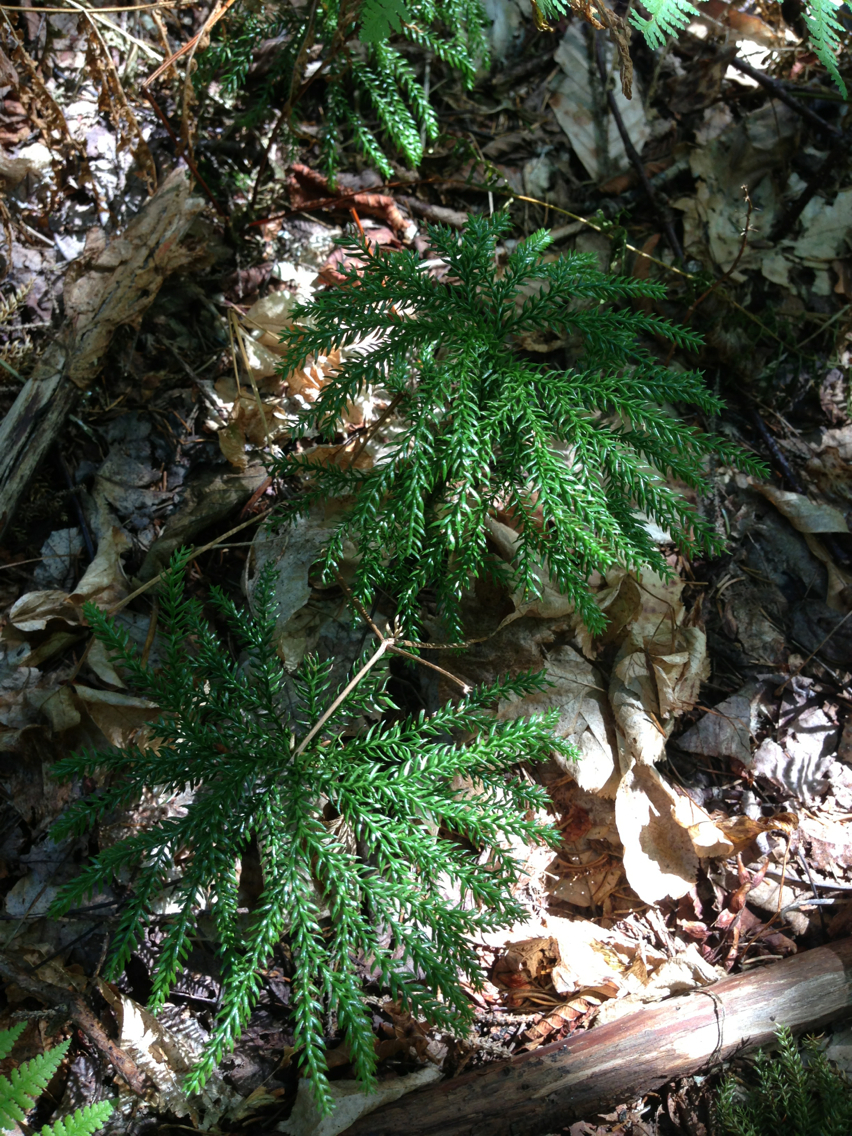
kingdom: Plantae
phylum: Tracheophyta
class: Lycopodiopsida
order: Lycopodiales
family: Lycopodiaceae
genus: Dendrolycopodium
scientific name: Dendrolycopodium obscurum
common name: Common ground-pine
